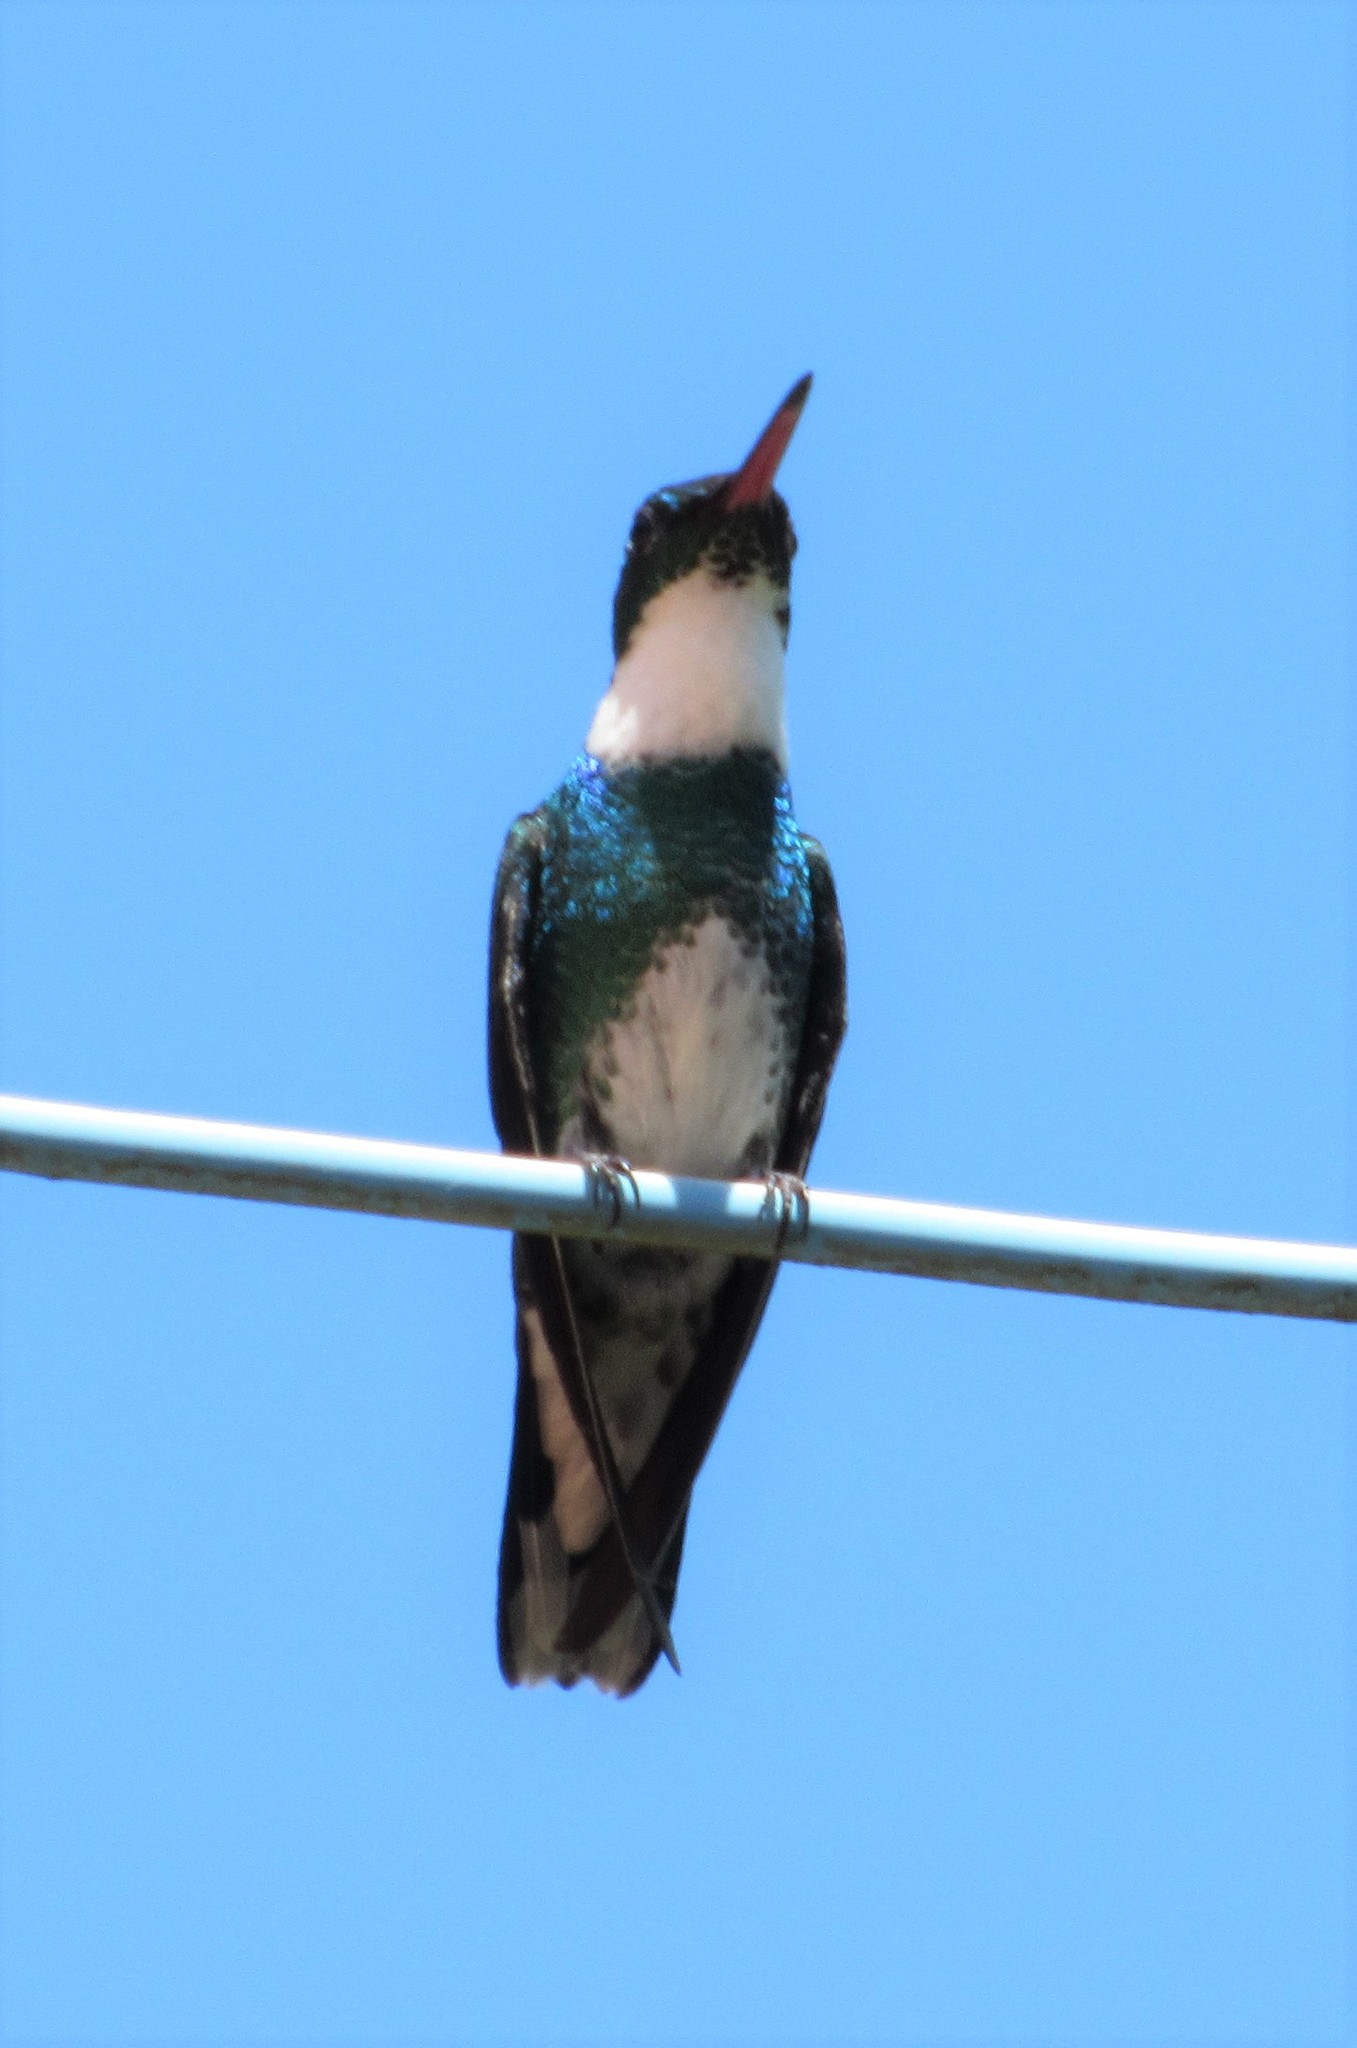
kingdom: Animalia
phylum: Chordata
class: Aves
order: Apodiformes
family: Trochilidae
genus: Leucochloris
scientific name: Leucochloris albicollis
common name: White-throated hummingbird
